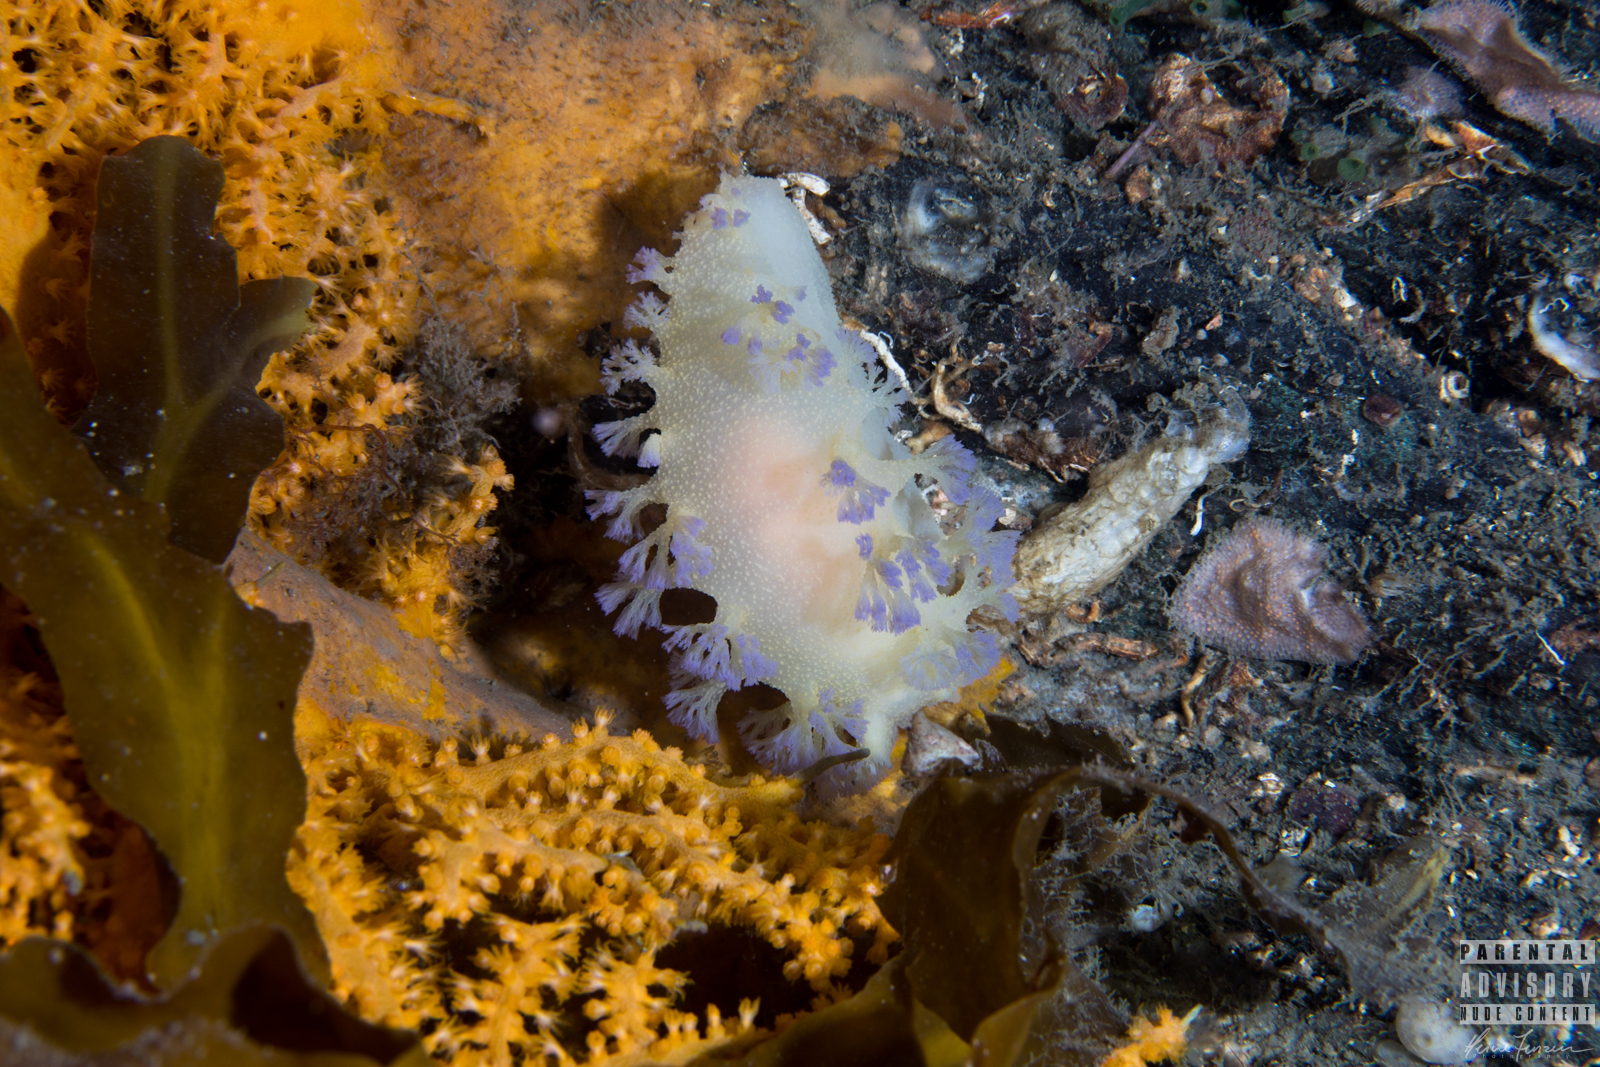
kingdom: Animalia
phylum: Mollusca
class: Gastropoda
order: Nudibranchia
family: Tritoniidae
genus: Tritonia
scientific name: Tritonia griegi
